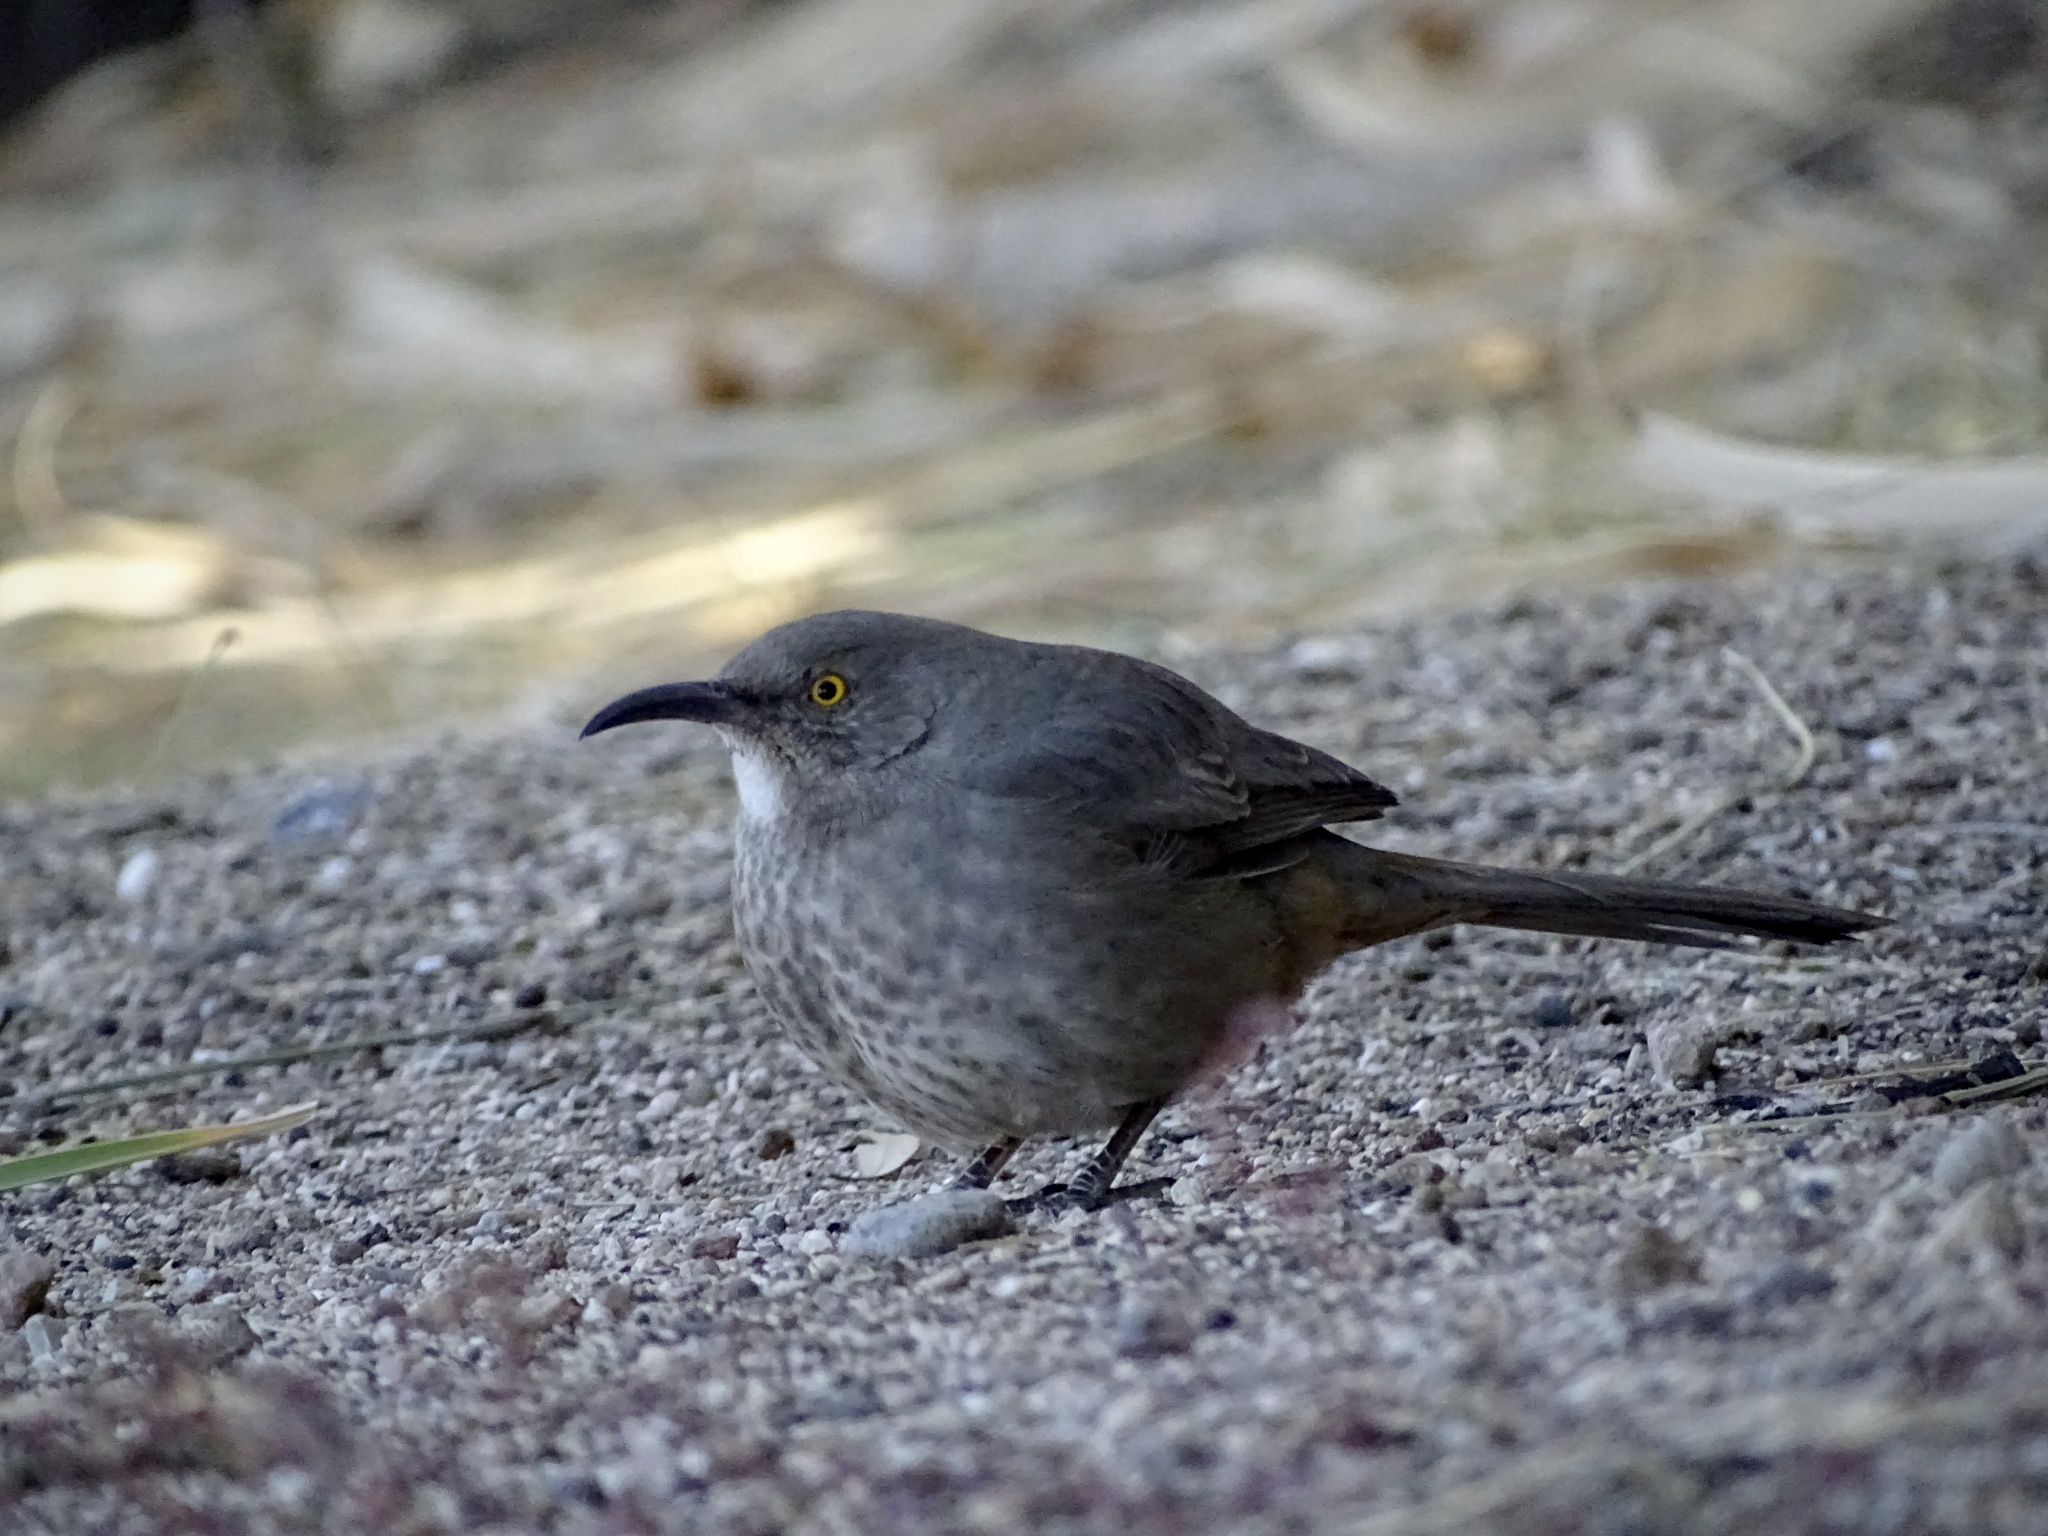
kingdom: Animalia
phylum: Chordata
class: Aves
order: Passeriformes
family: Mimidae
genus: Toxostoma
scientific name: Toxostoma curvirostre
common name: Curve-billed thrasher
